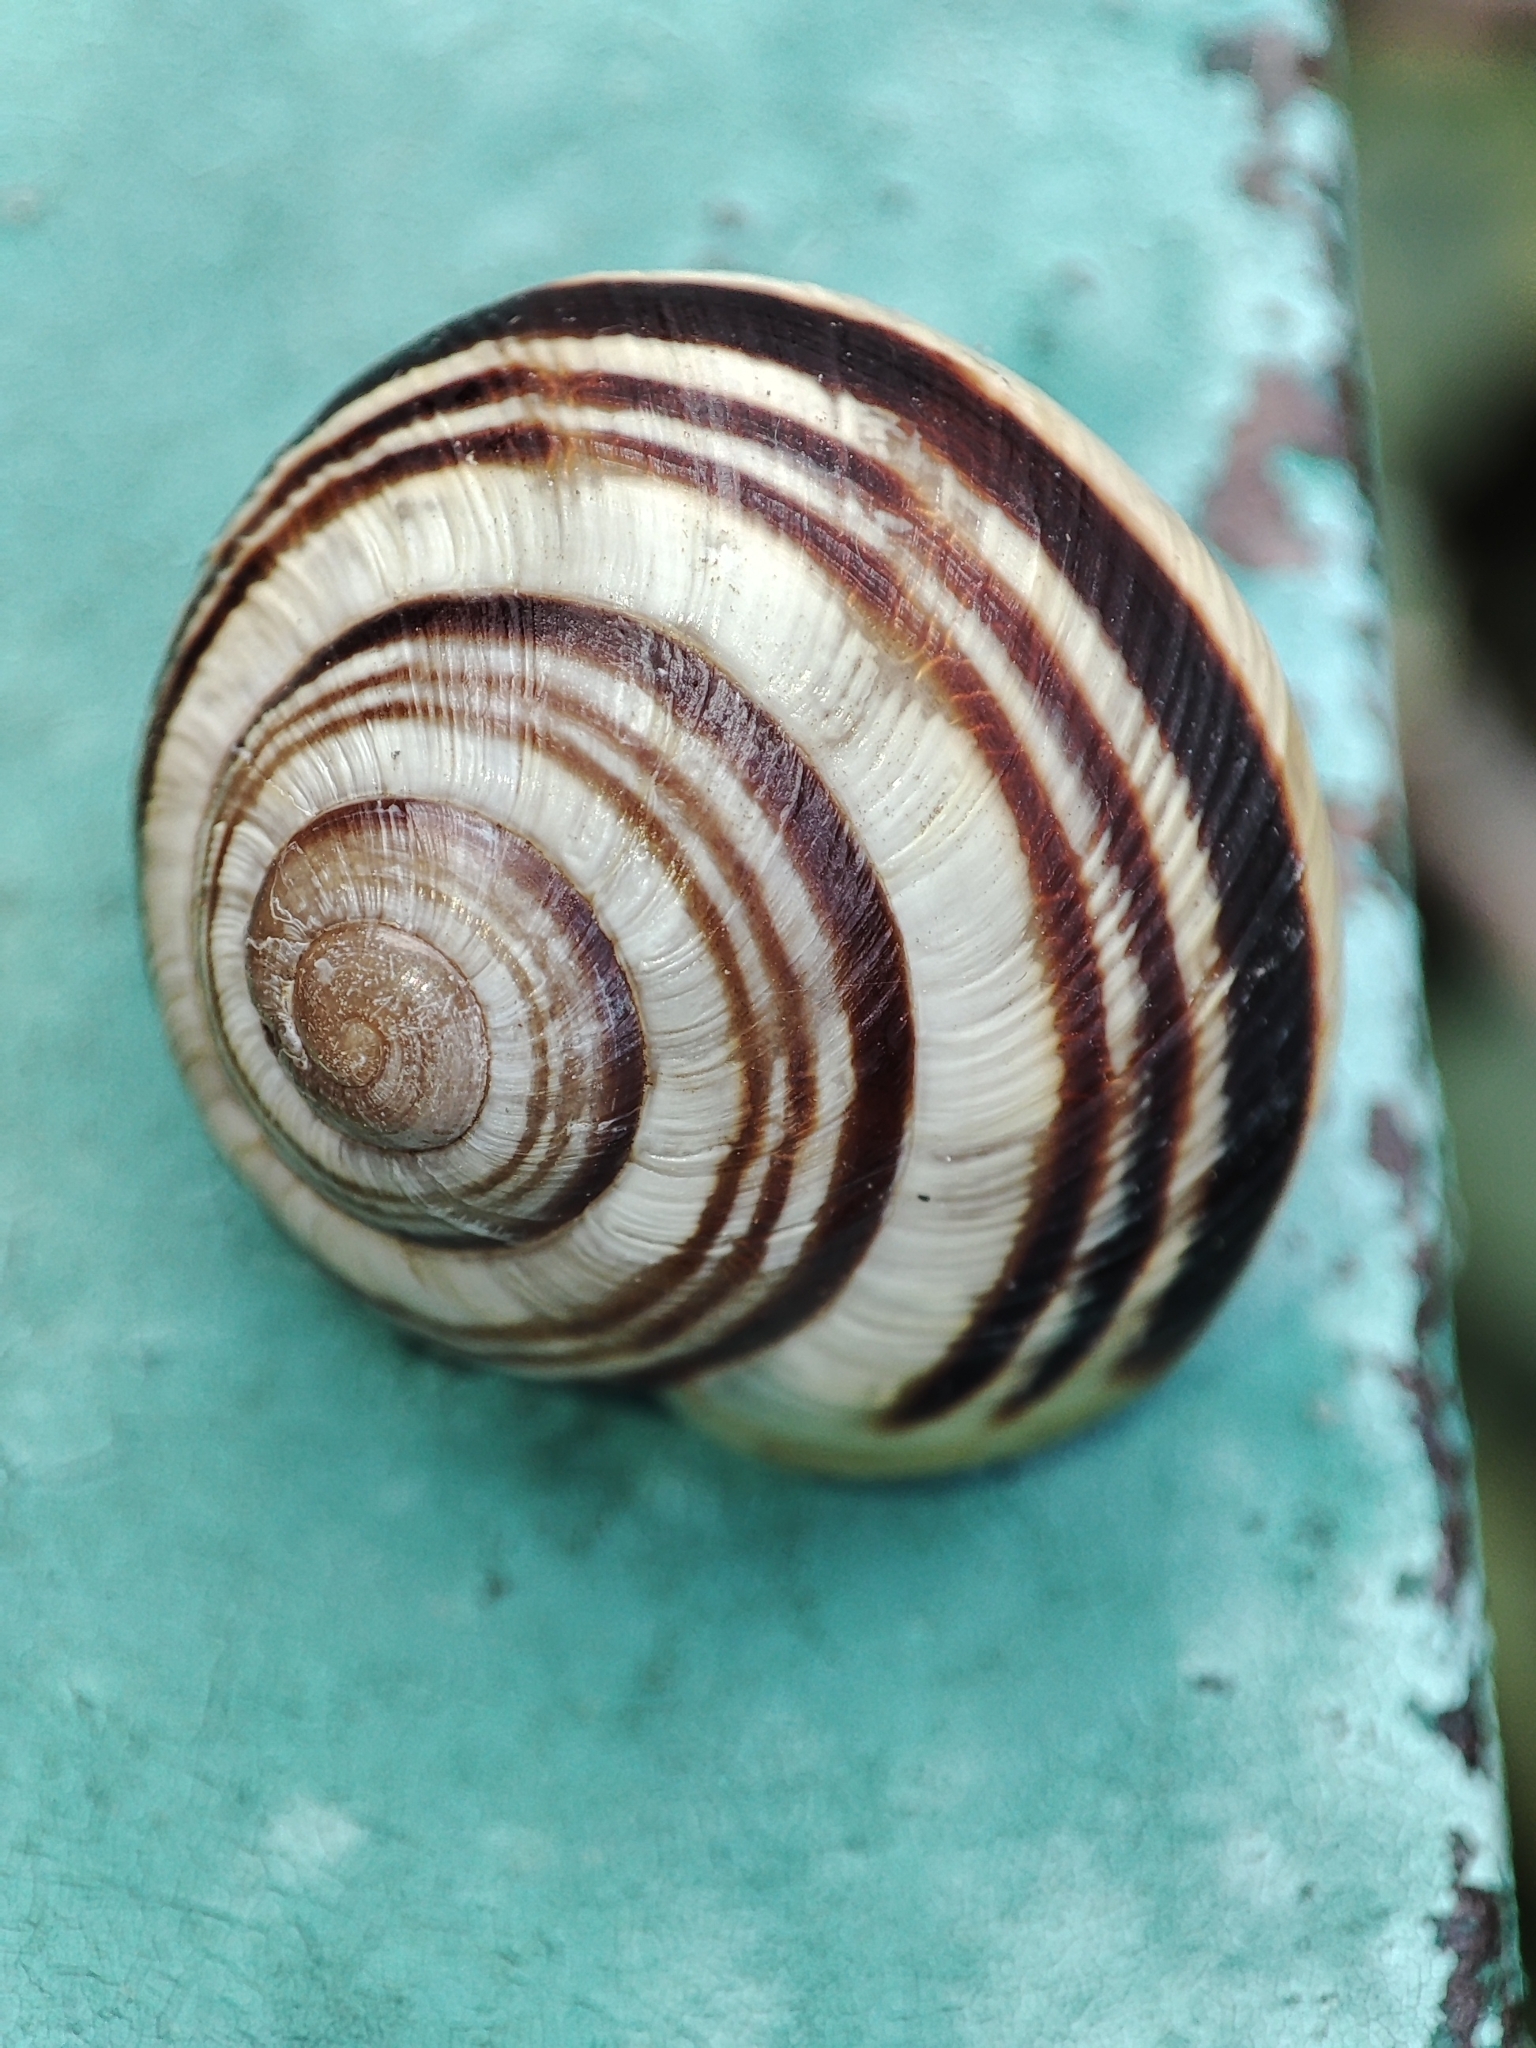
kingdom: Animalia
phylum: Mollusca
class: Gastropoda
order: Stylommatophora
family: Helicidae
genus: Caucasotachea
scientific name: Caucasotachea vindobonensis
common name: European helicid land snail
